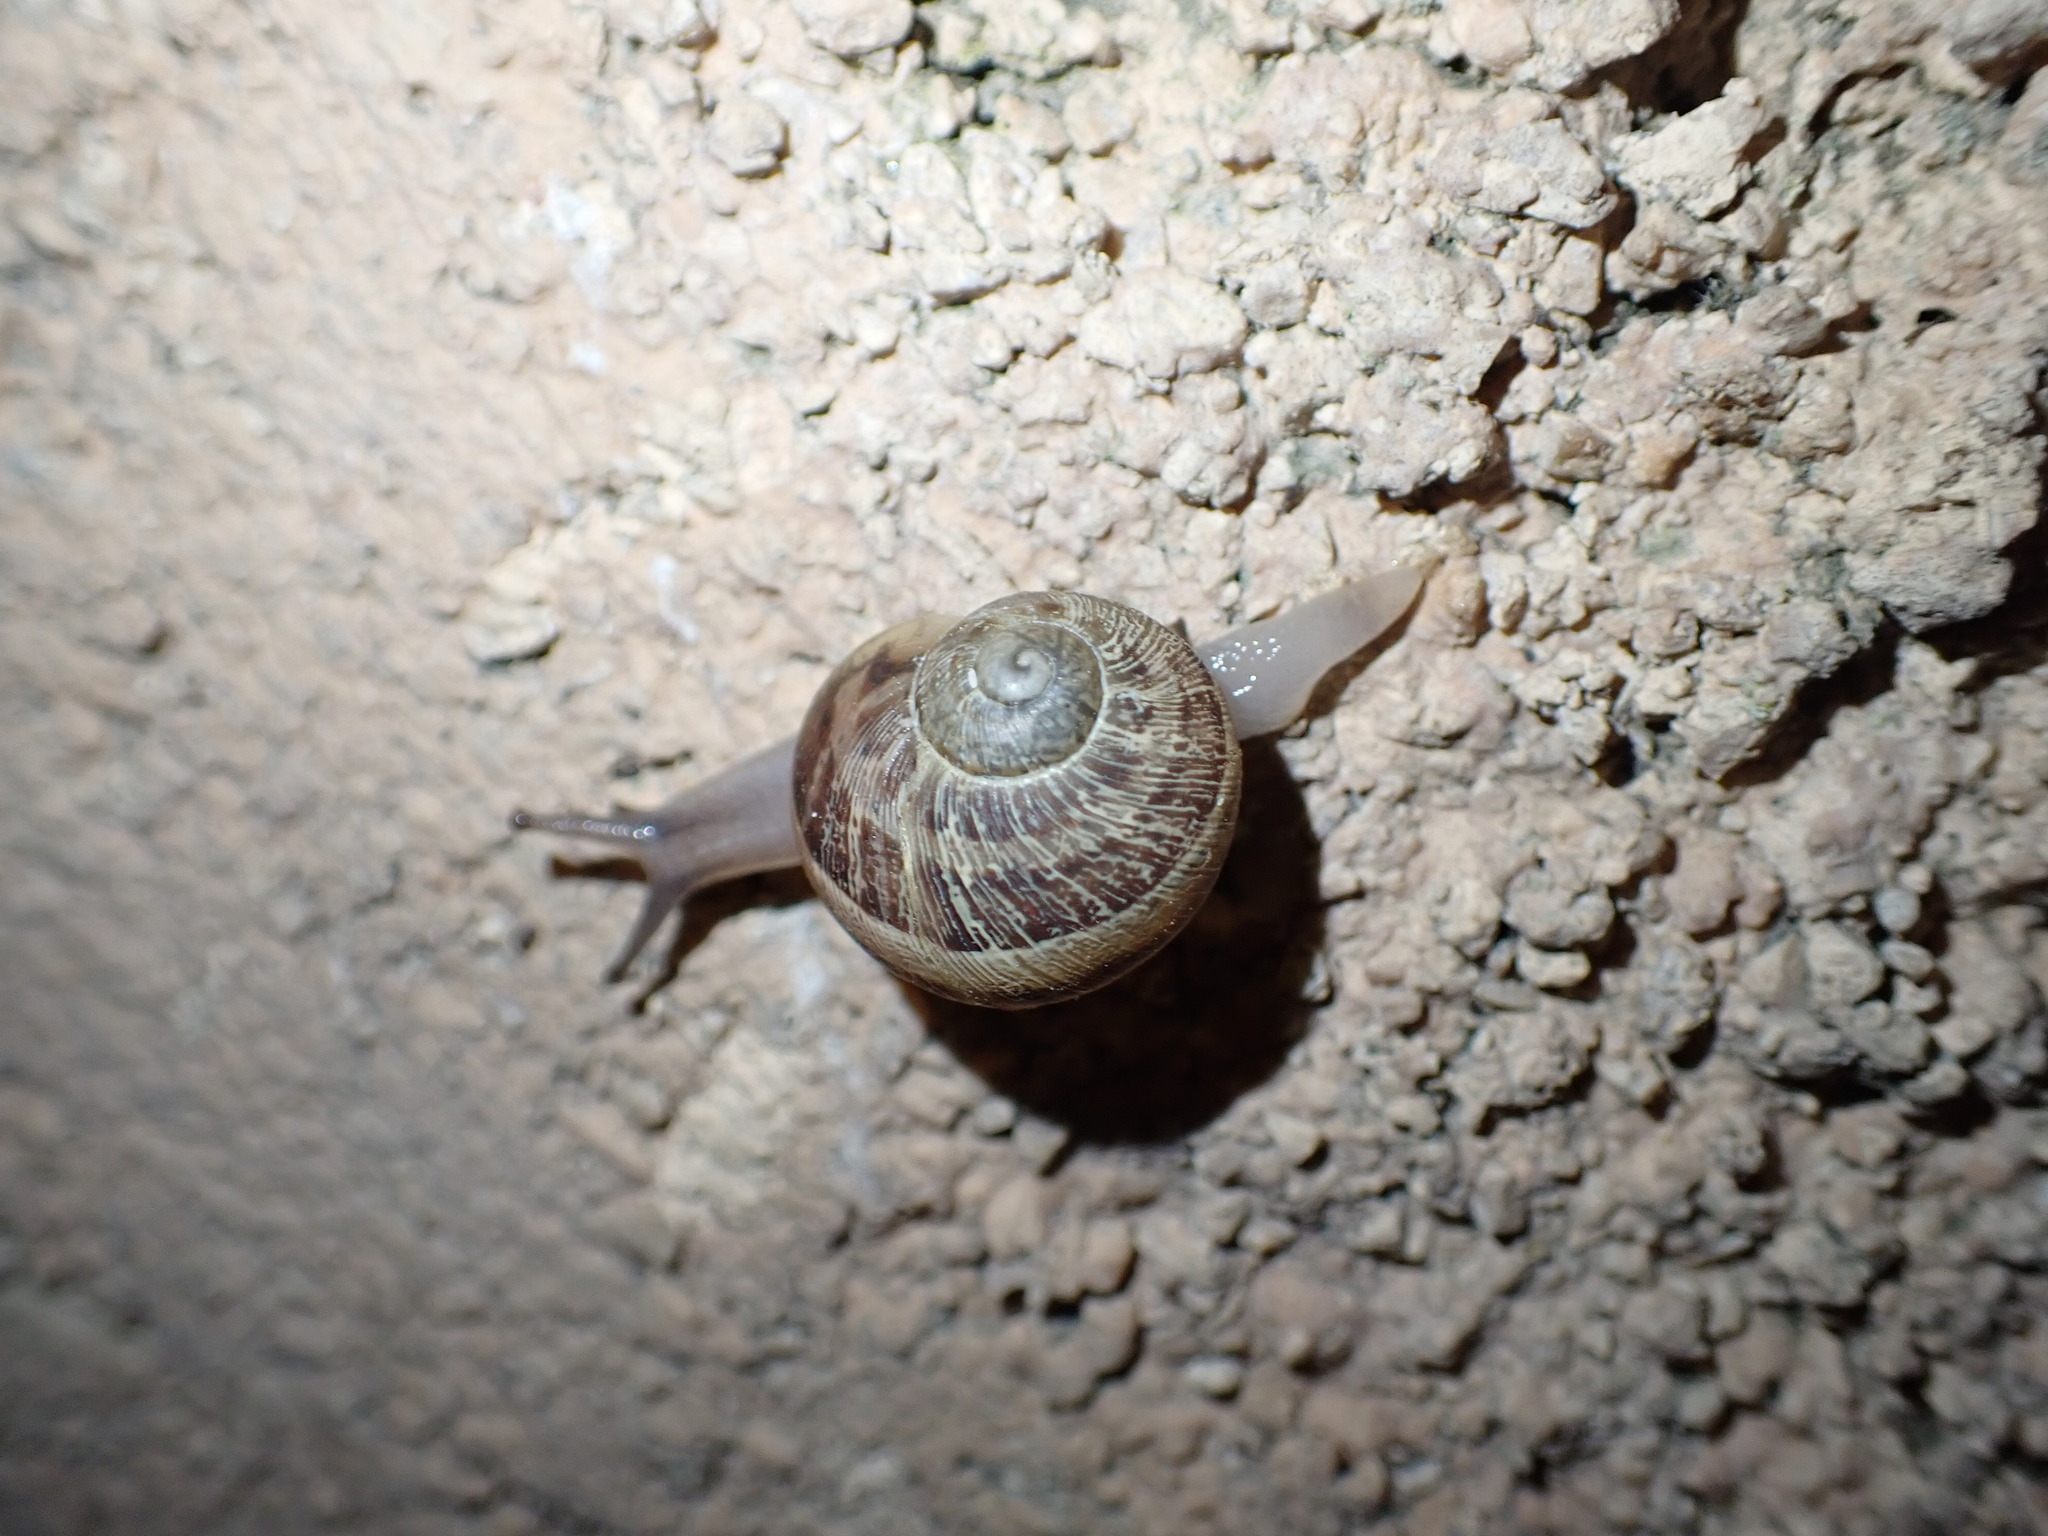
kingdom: Animalia
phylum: Mollusca
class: Gastropoda
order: Stylommatophora
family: Helicidae
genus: Cornu
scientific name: Cornu aspersum
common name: Brown garden snail
